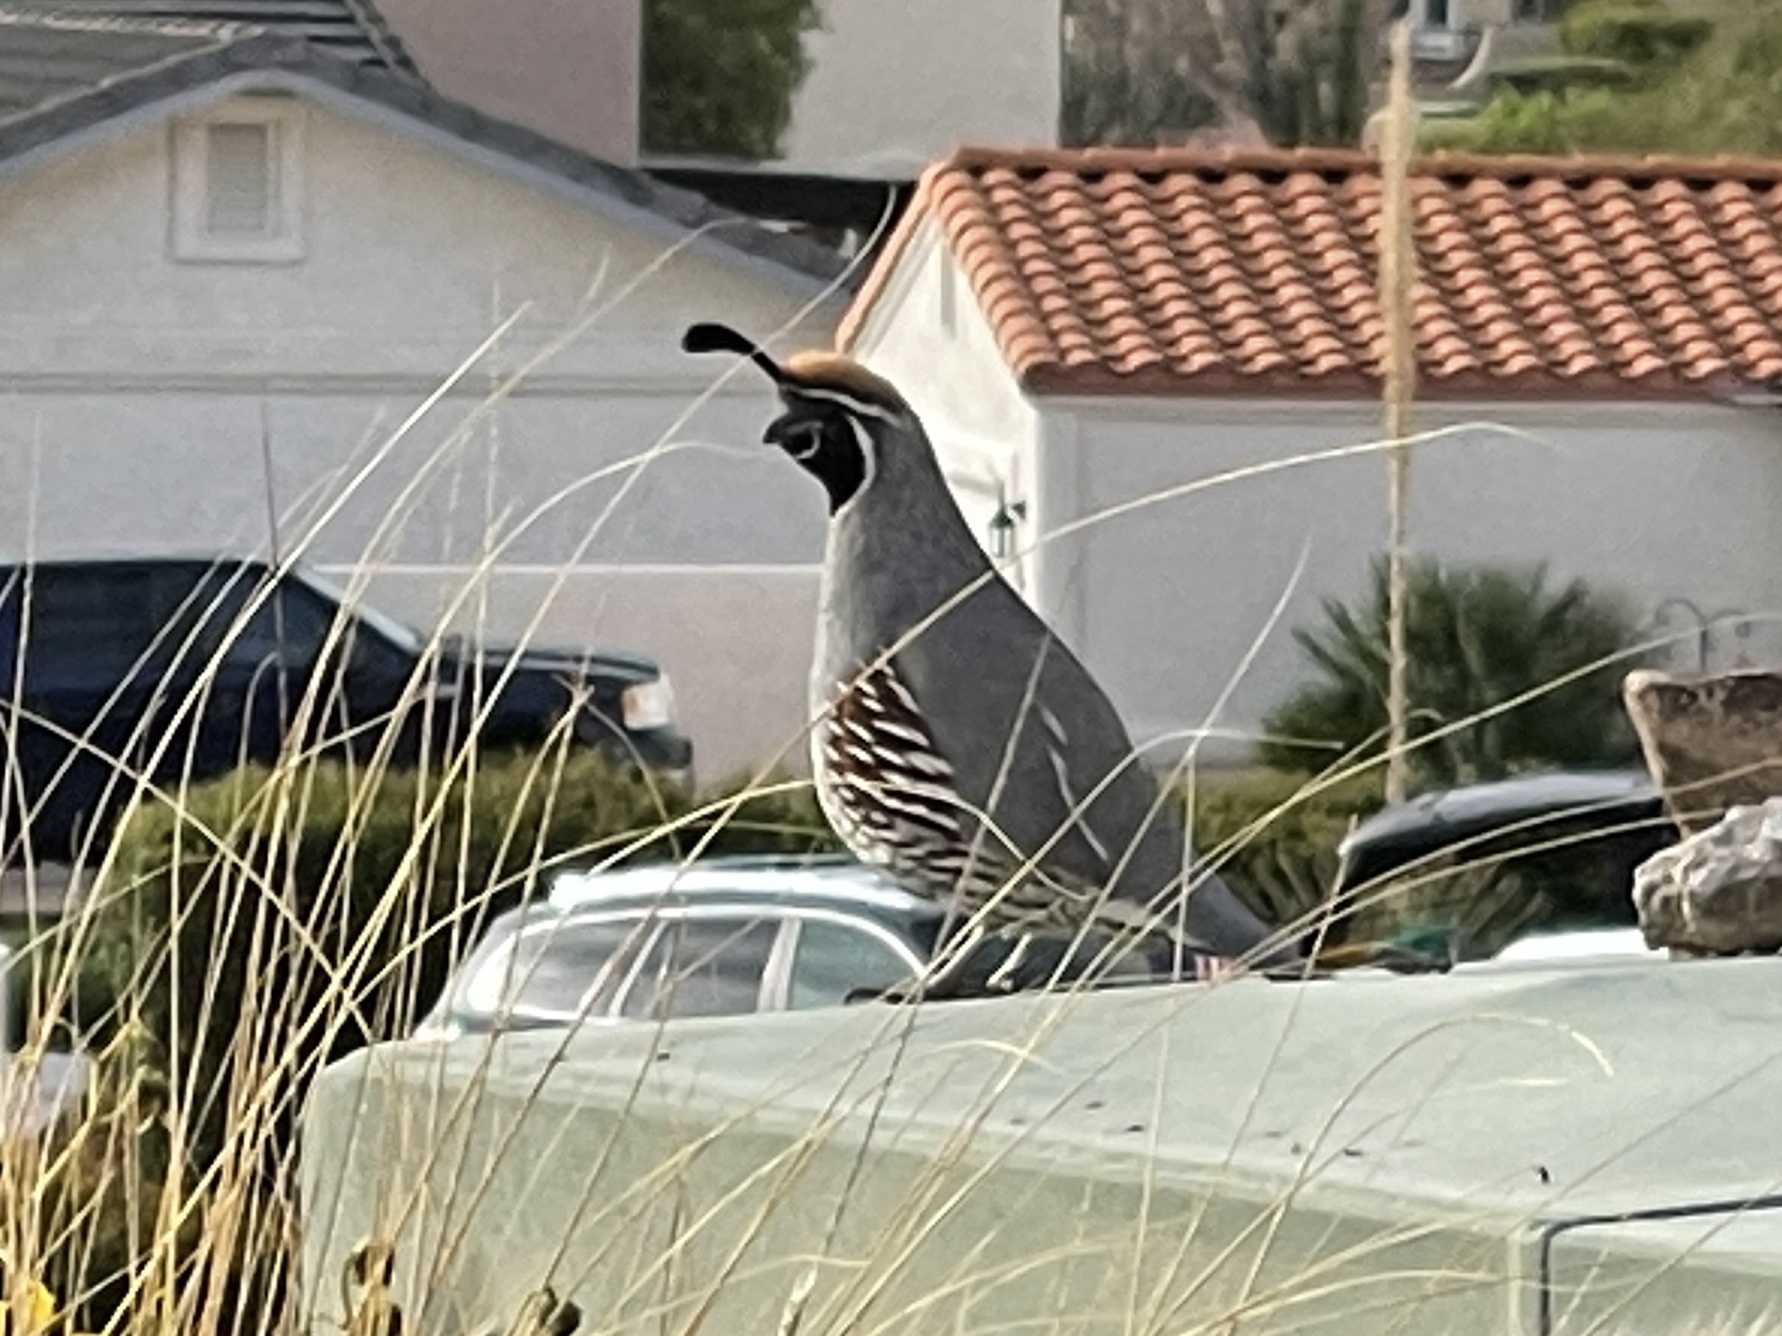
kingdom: Animalia
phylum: Chordata
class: Aves
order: Galliformes
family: Odontophoridae
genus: Callipepla
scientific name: Callipepla gambelii
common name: Gambel's quail
